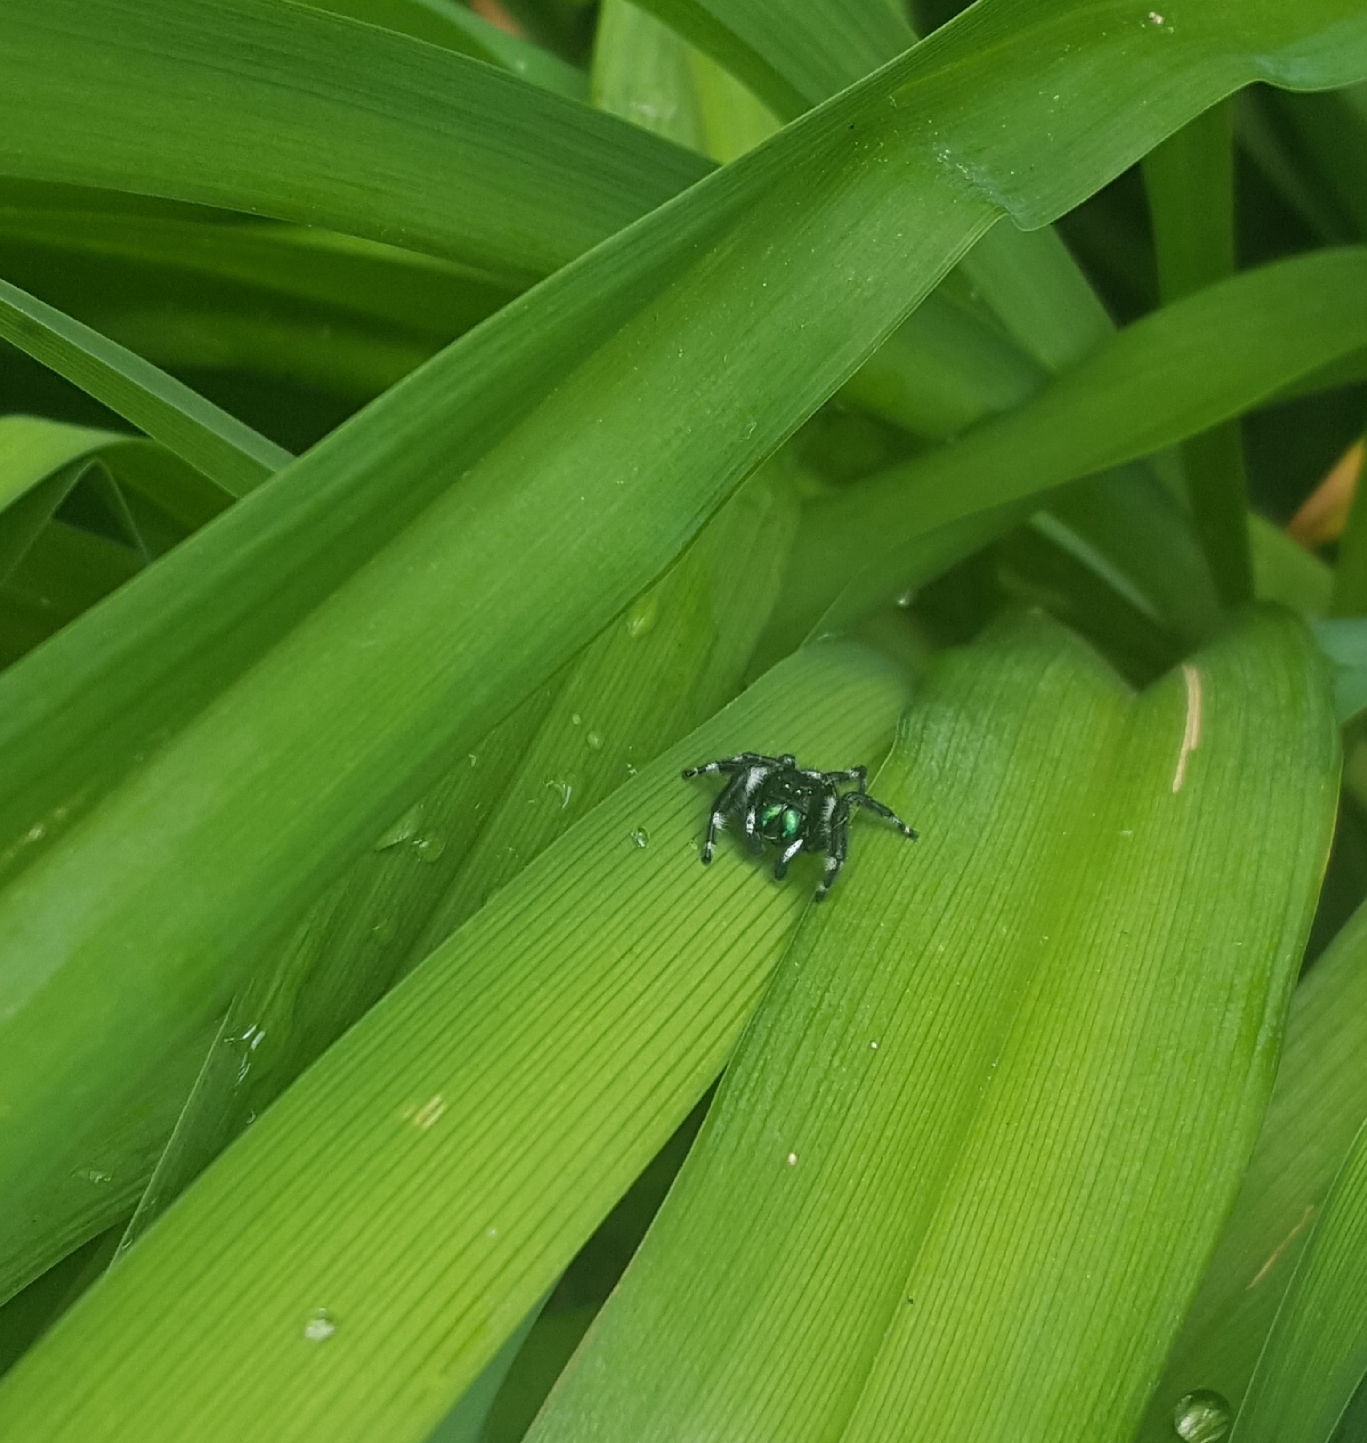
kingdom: Animalia
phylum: Arthropoda
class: Arachnida
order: Araneae
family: Salticidae
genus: Phidippus
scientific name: Phidippus audax
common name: Bold jumper
